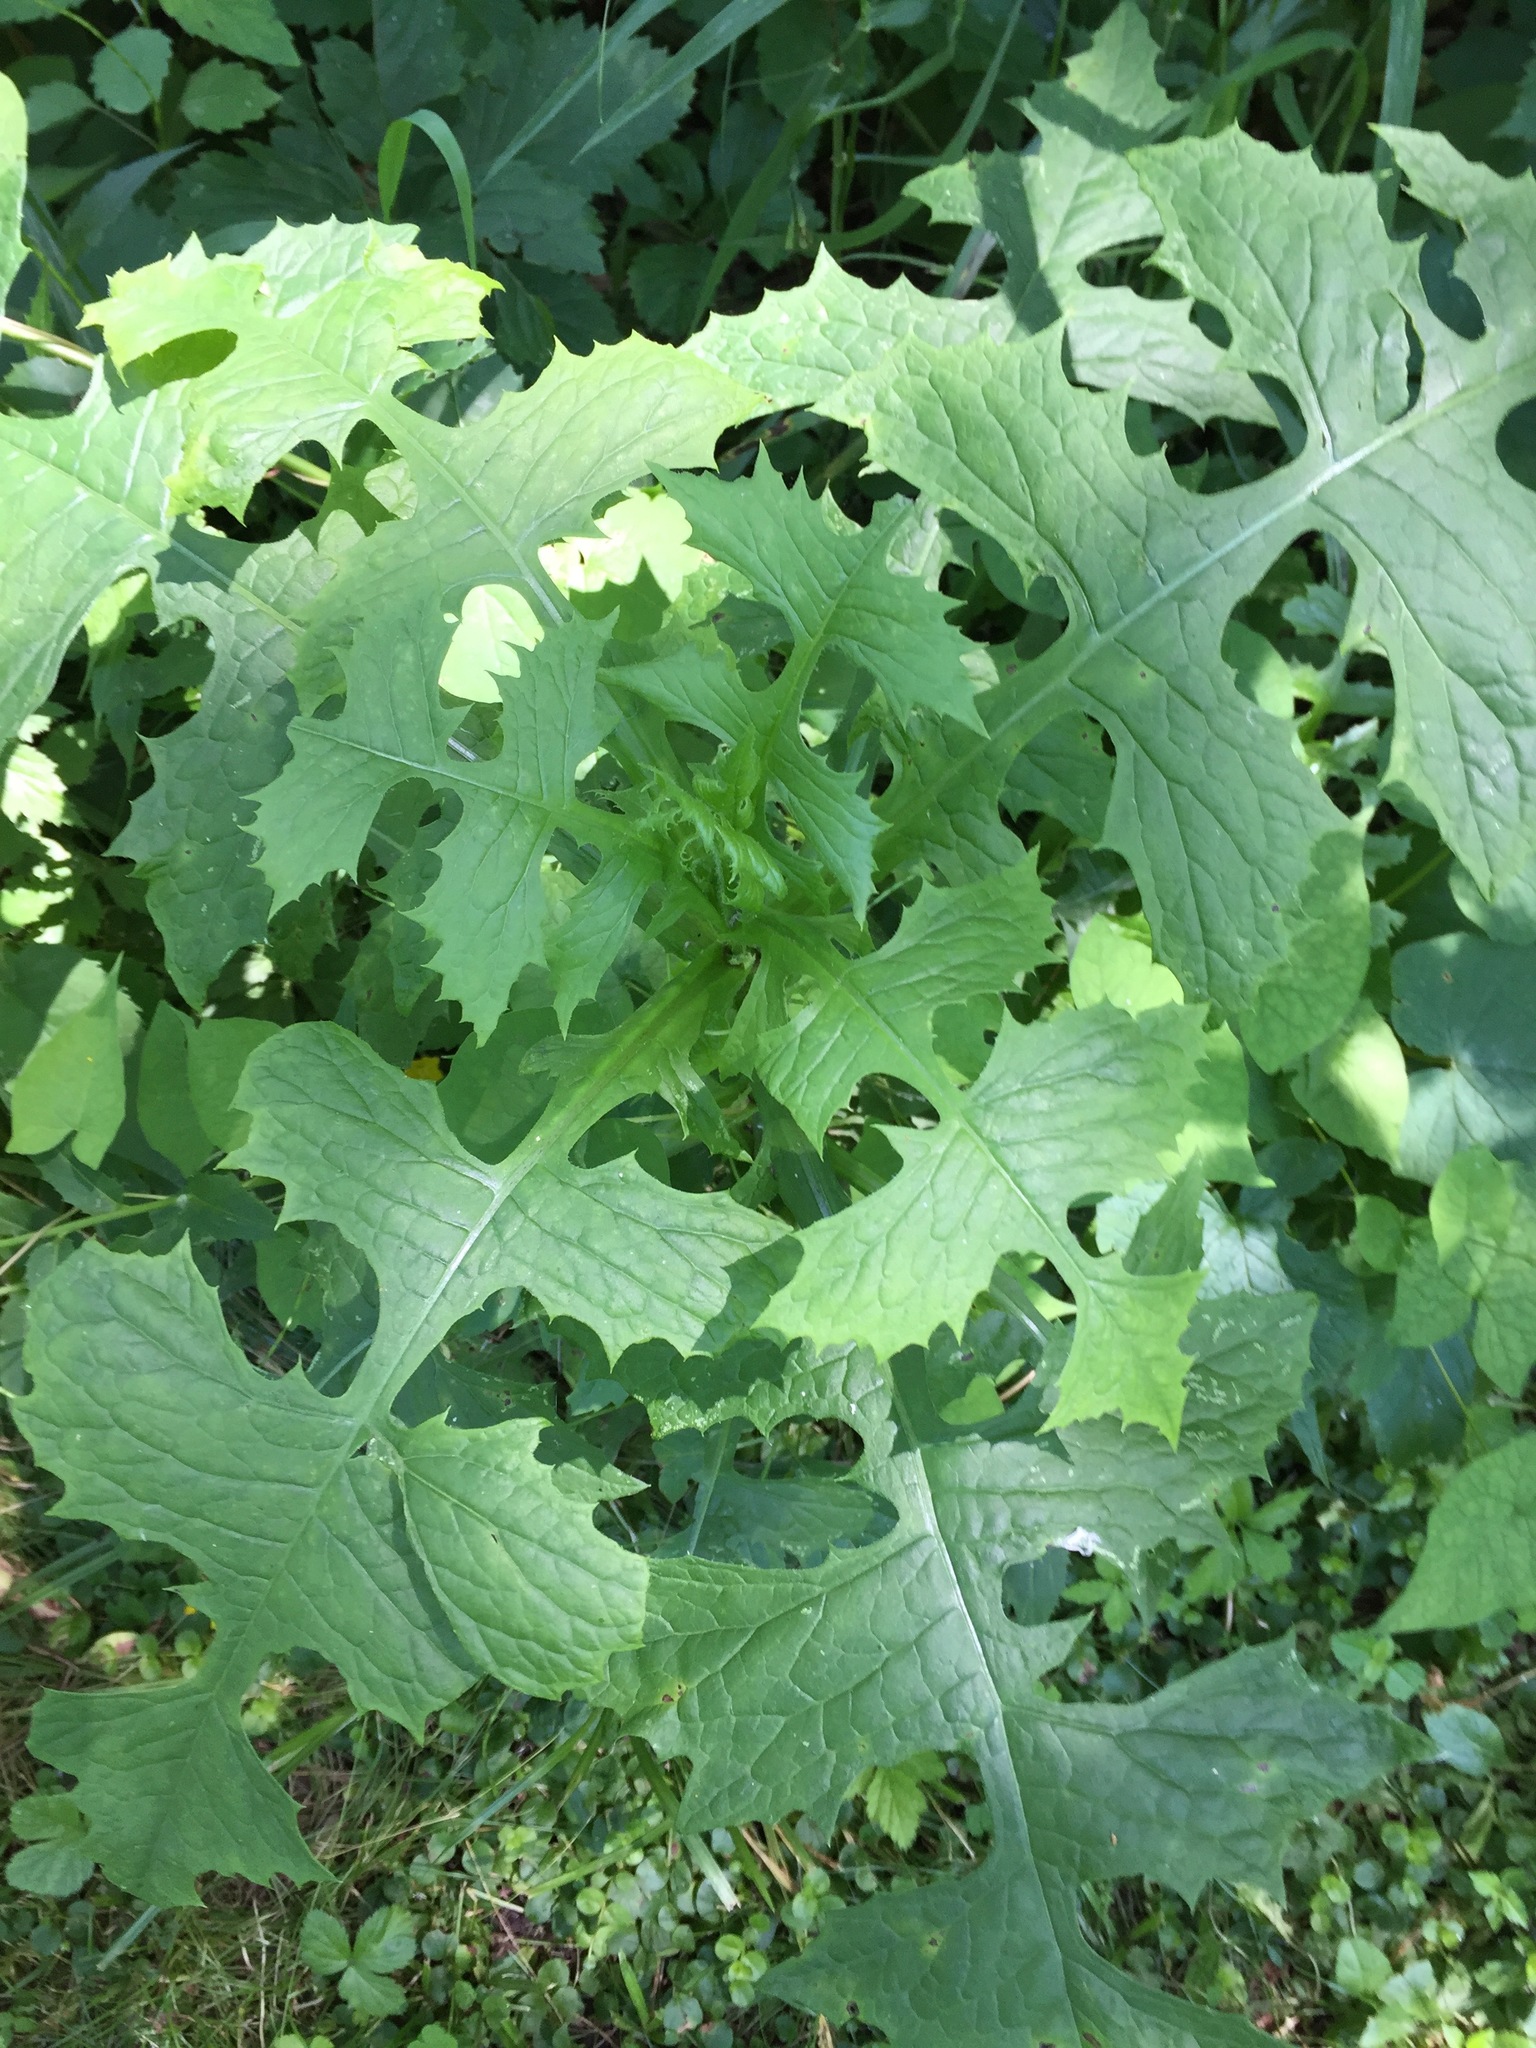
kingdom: Plantae
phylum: Tracheophyta
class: Magnoliopsida
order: Asterales
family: Asteraceae
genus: Lactuca
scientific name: Lactuca biennis
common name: Blue wood lettuce
